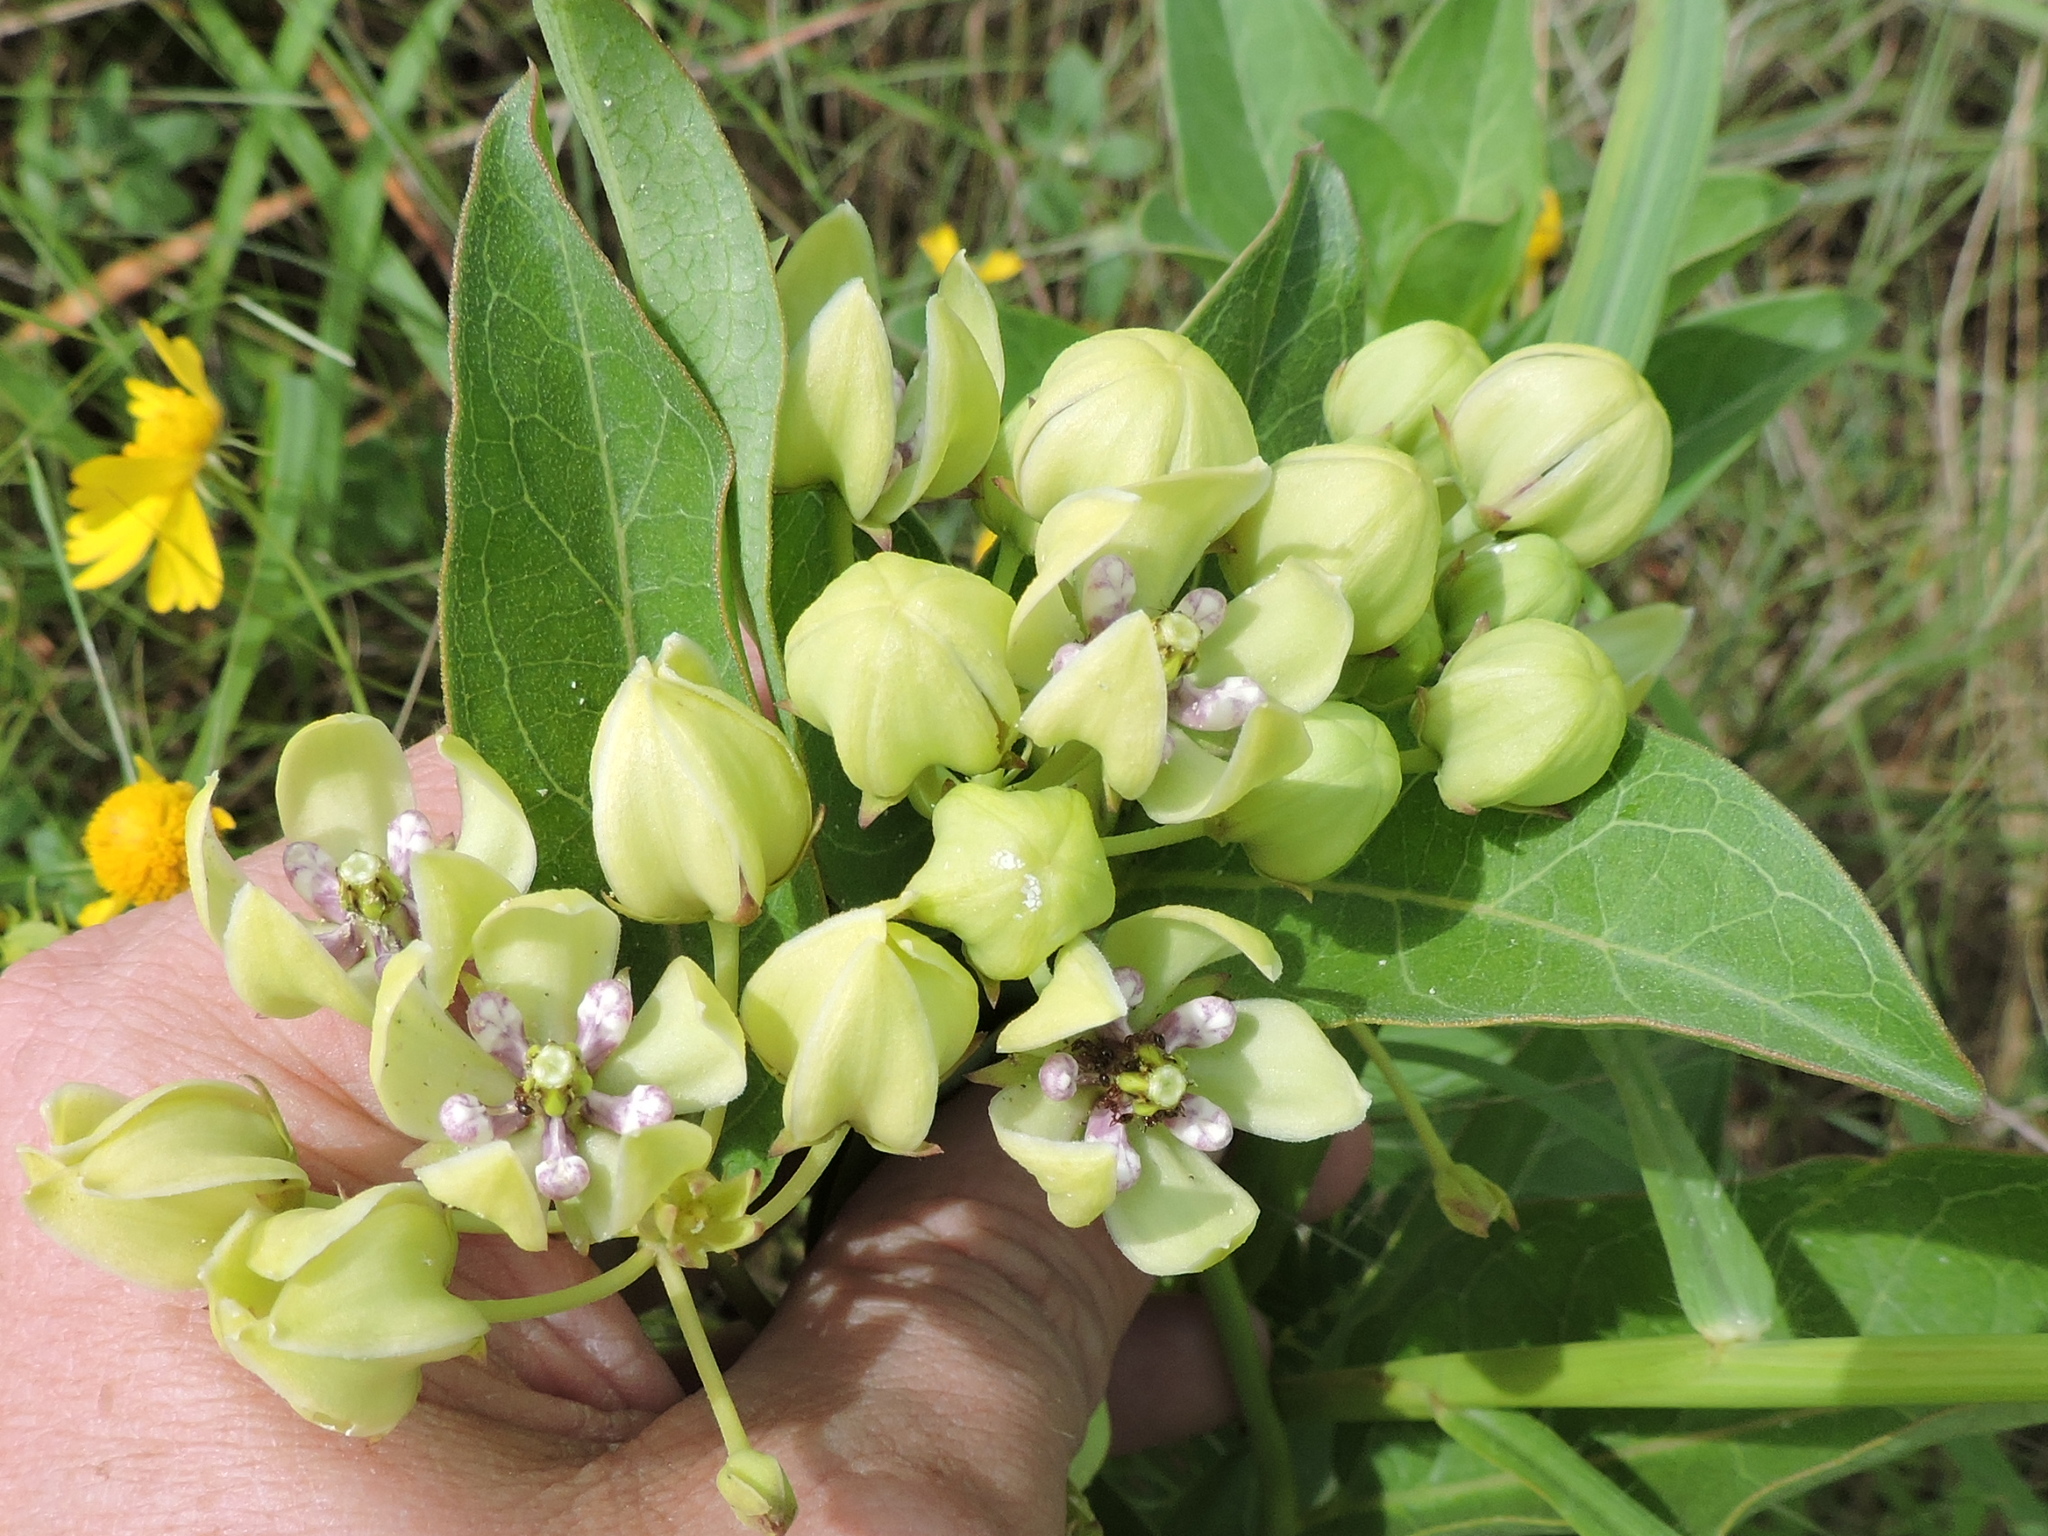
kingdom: Plantae
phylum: Tracheophyta
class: Magnoliopsida
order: Gentianales
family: Apocynaceae
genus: Asclepias
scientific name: Asclepias viridis
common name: Antelope-horns
